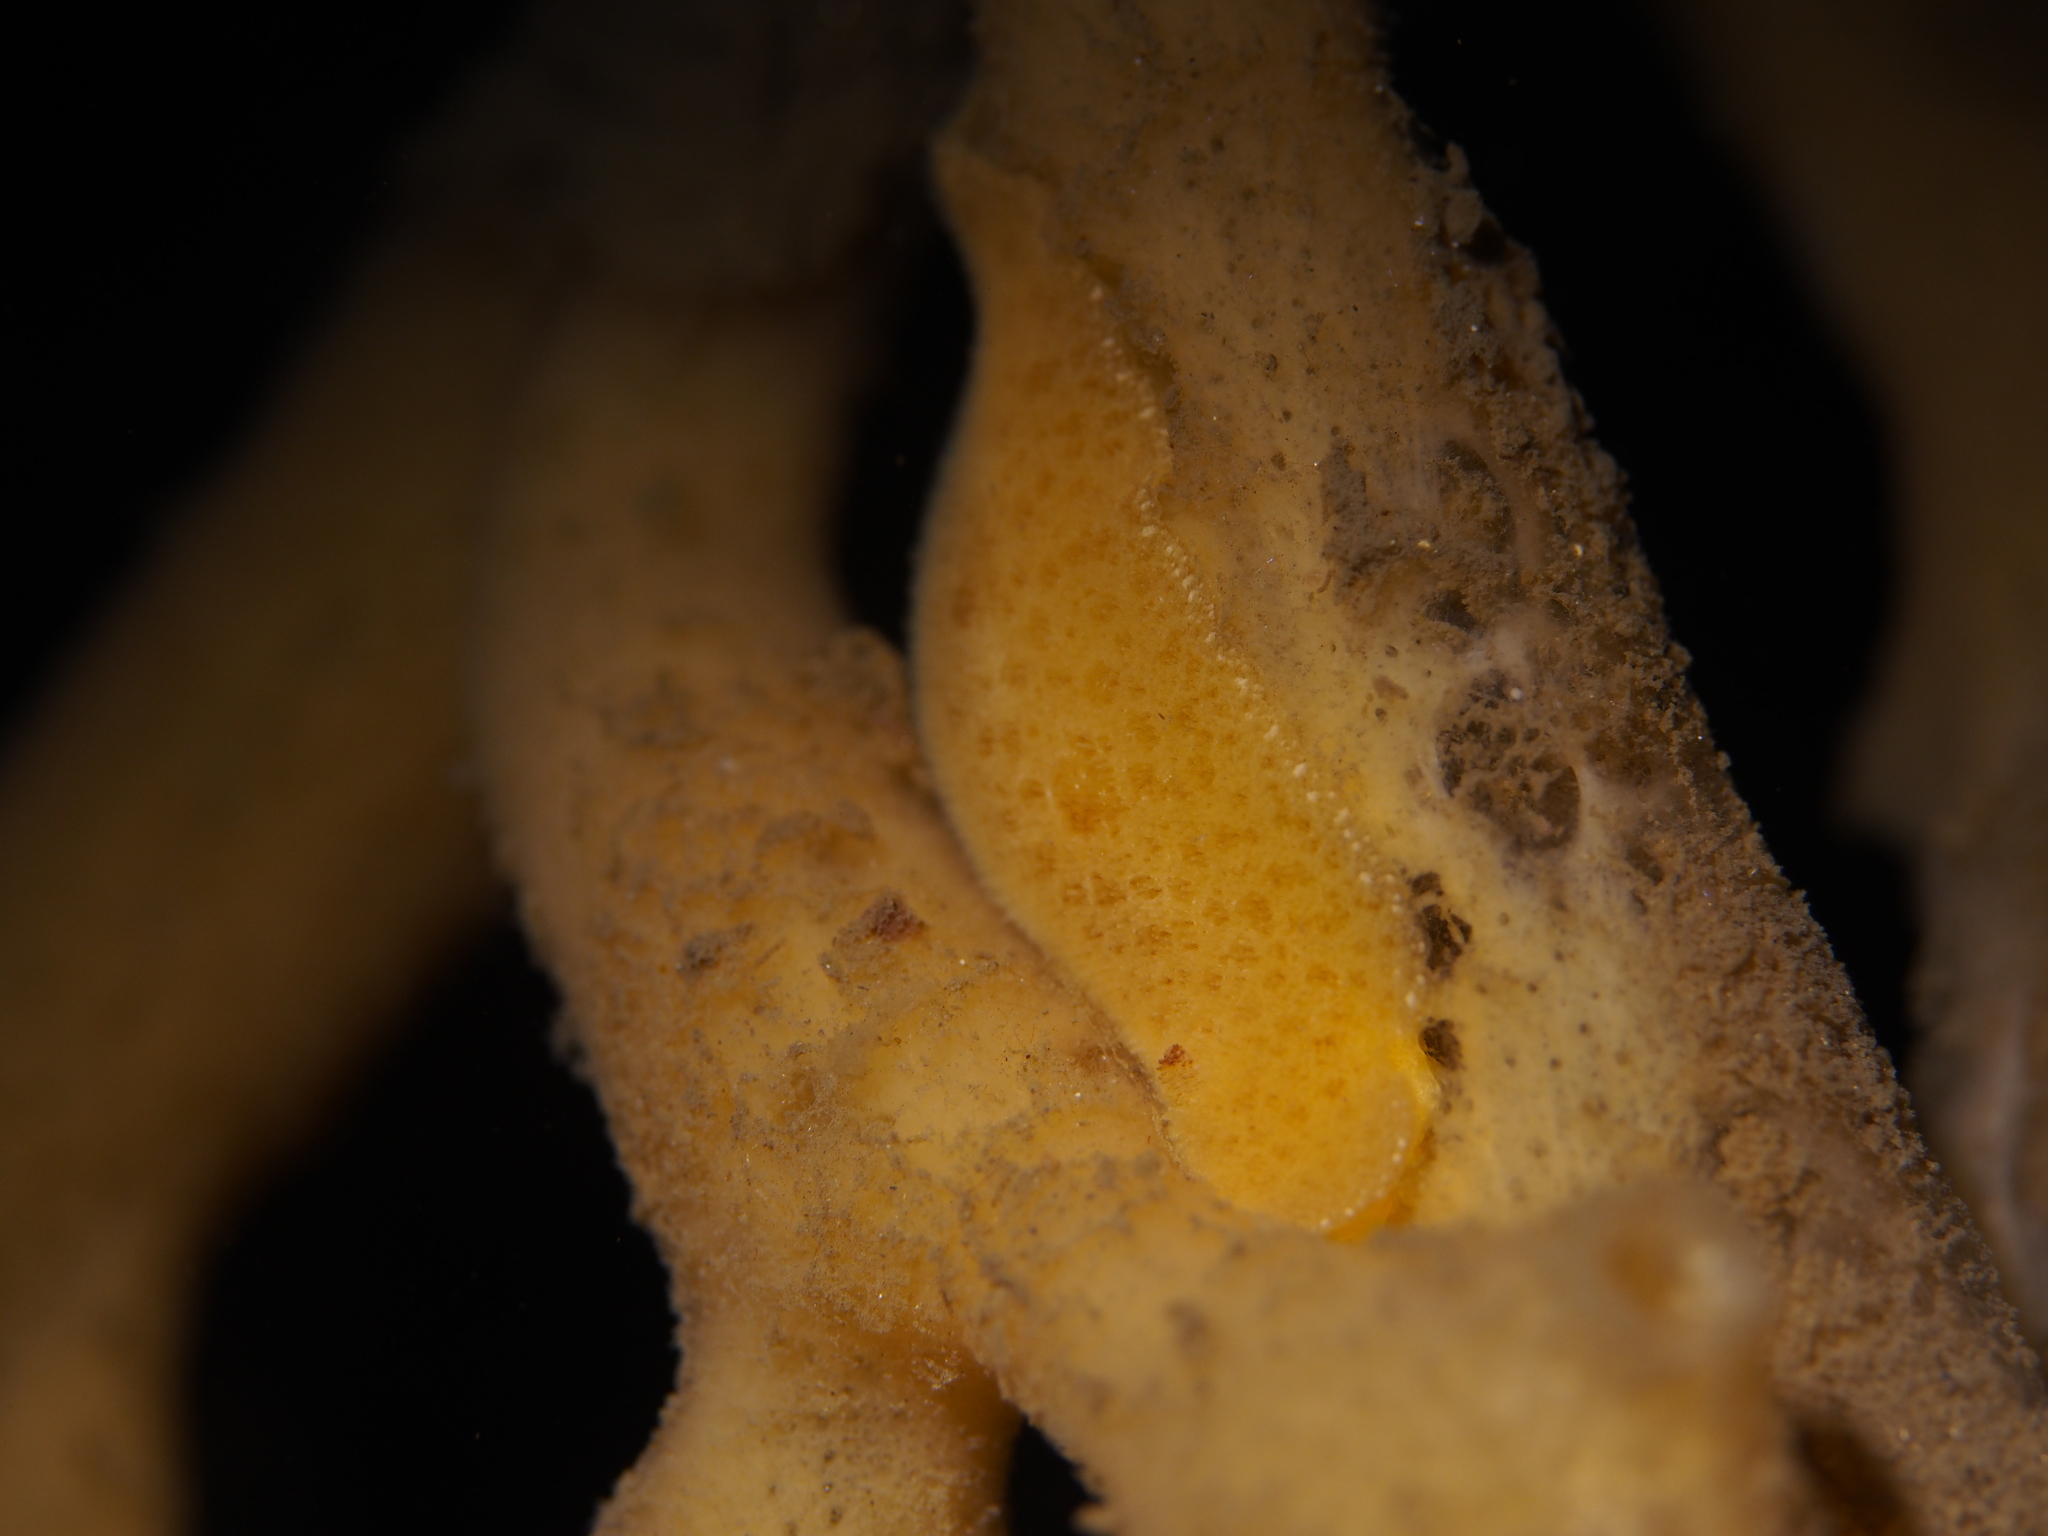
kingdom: Animalia
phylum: Mollusca
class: Gastropoda
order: Nudibranchia
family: Discodorididae
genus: Jorunna
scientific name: Jorunna tomentosa
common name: Grey sea slug
